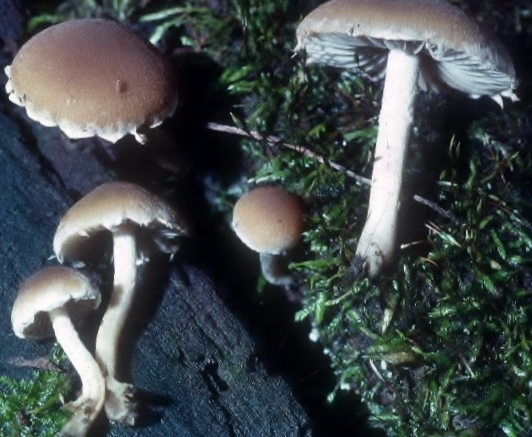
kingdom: Fungi
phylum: Basidiomycota
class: Agaricomycetes
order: Agaricales
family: Psathyrellaceae
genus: Psathyrella
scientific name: Psathyrella longipes
